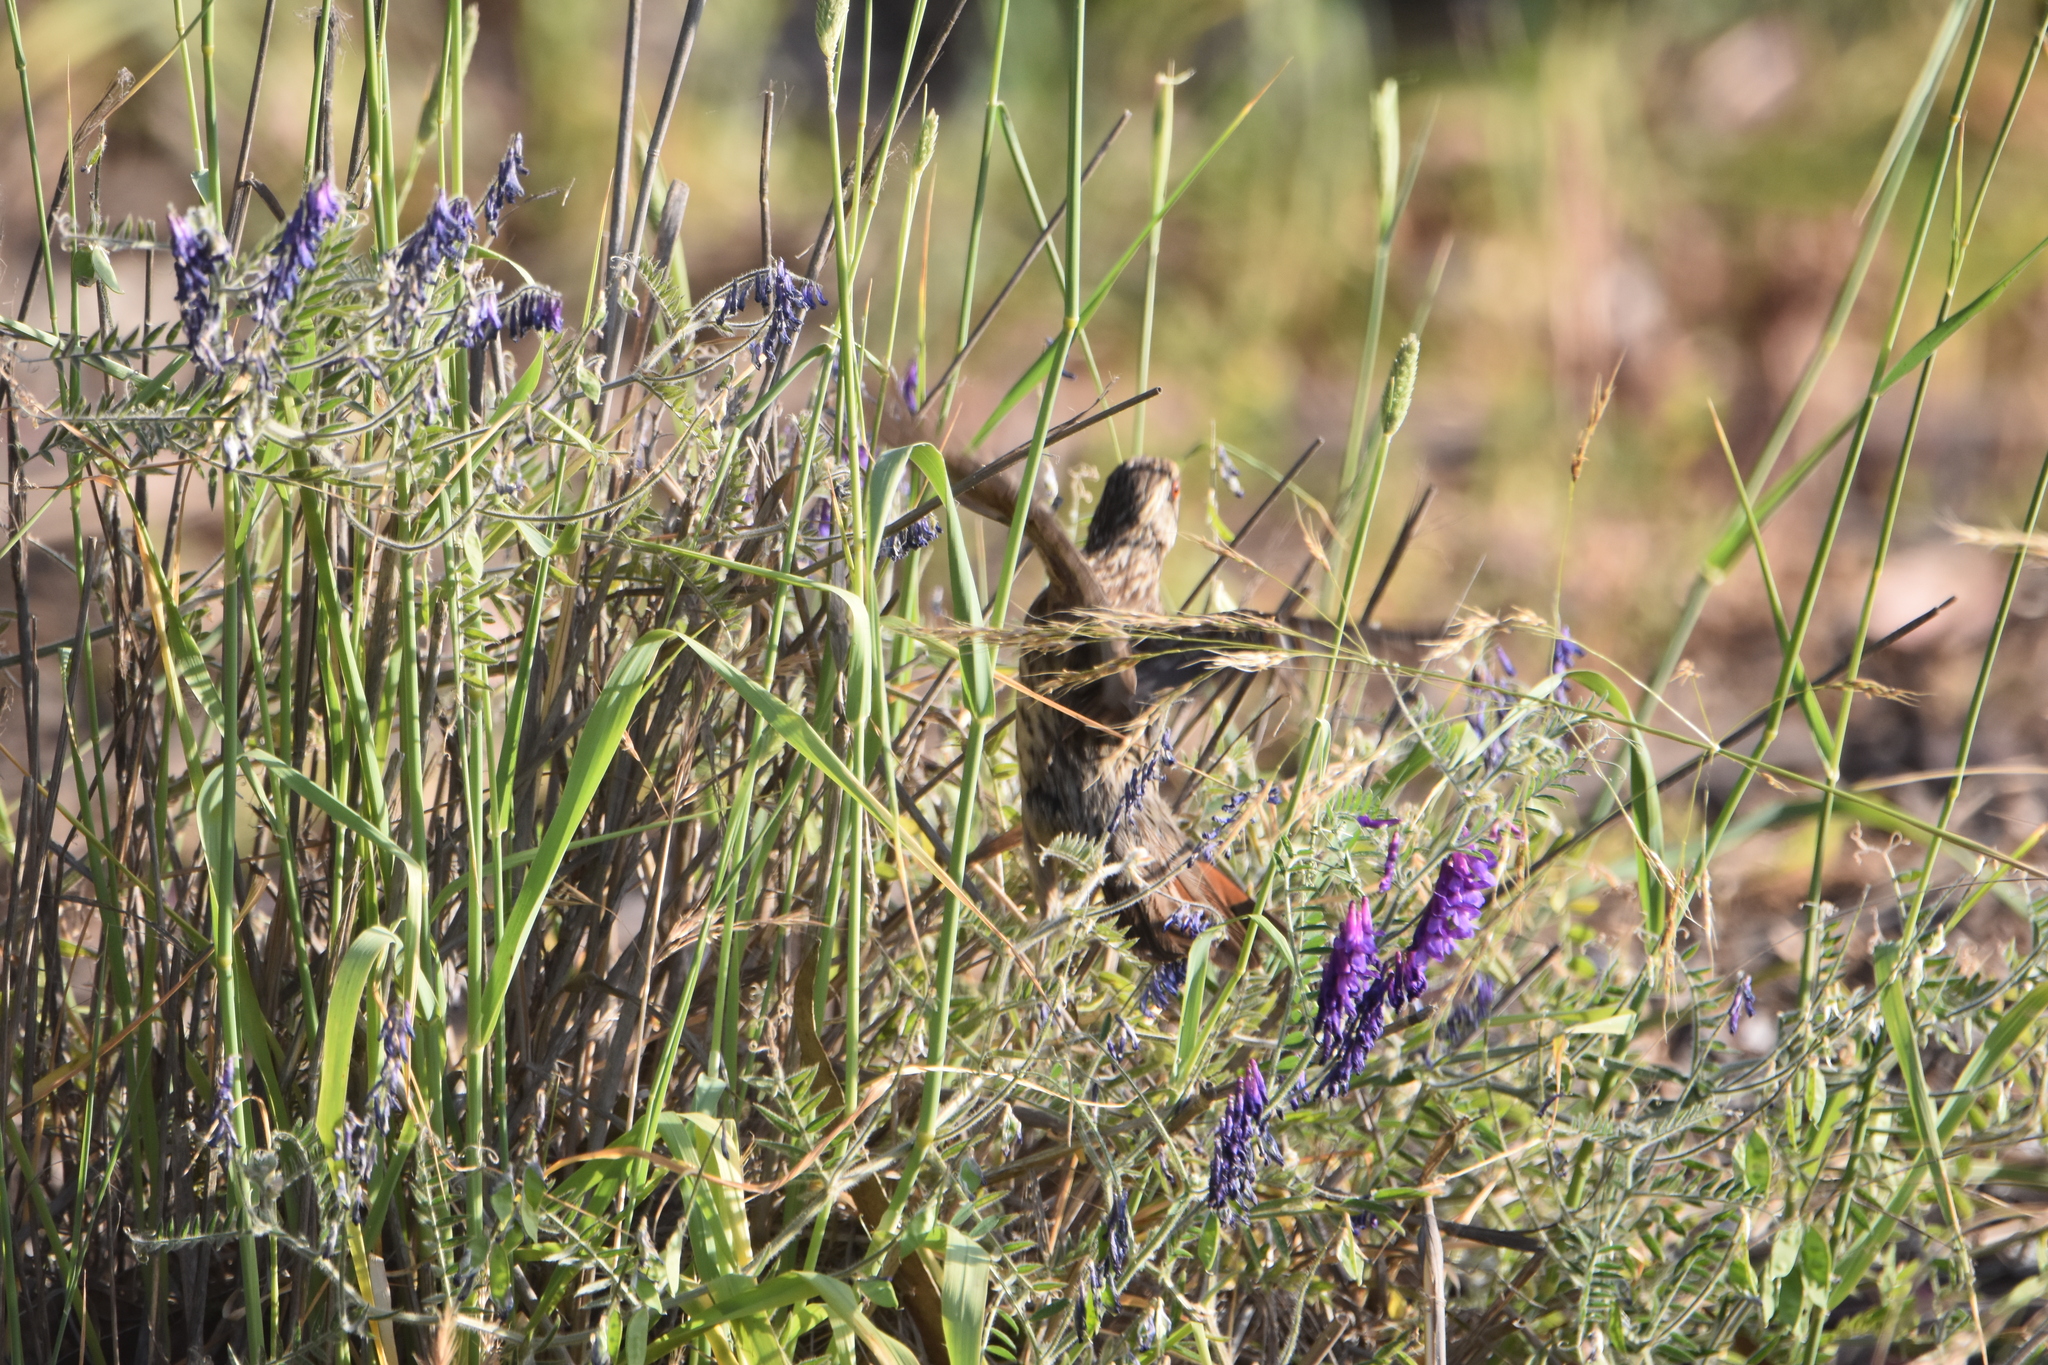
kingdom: Animalia
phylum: Chordata
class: Aves
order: Passeriformes
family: Cotingidae
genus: Phytotoma
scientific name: Phytotoma rara
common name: Rufous-tailed plantcutter
